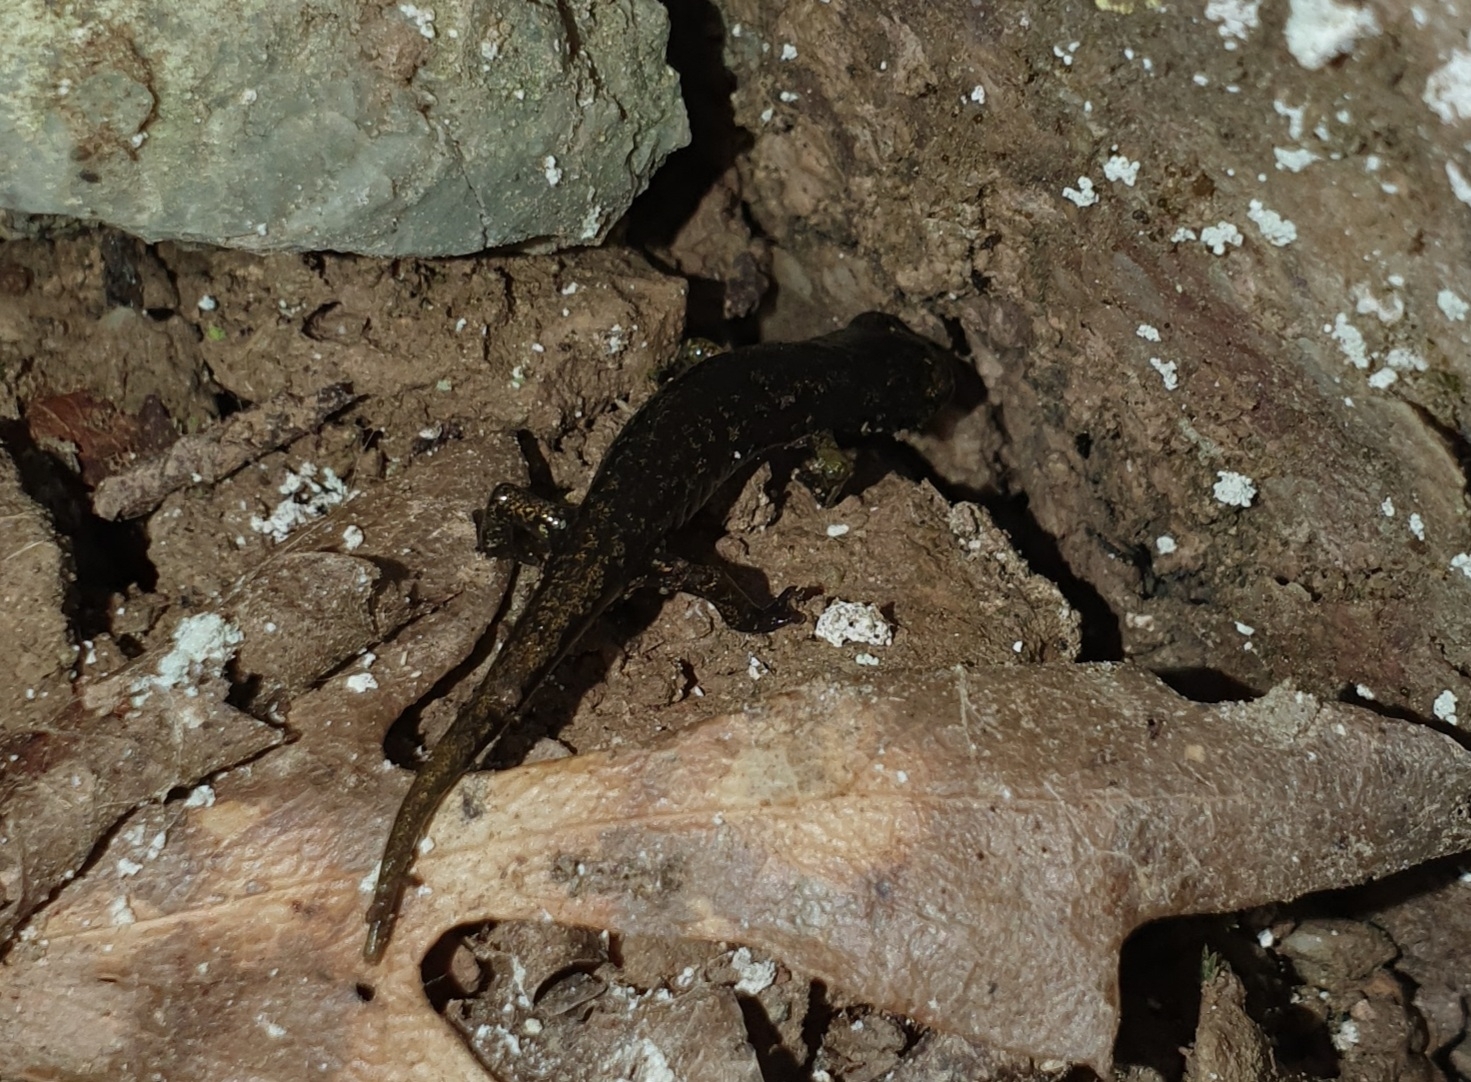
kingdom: Animalia
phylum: Chordata
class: Amphibia
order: Caudata
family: Plethodontidae
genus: Speleomantes
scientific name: Speleomantes ambrosii
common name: Ambrosi's cave salamander
